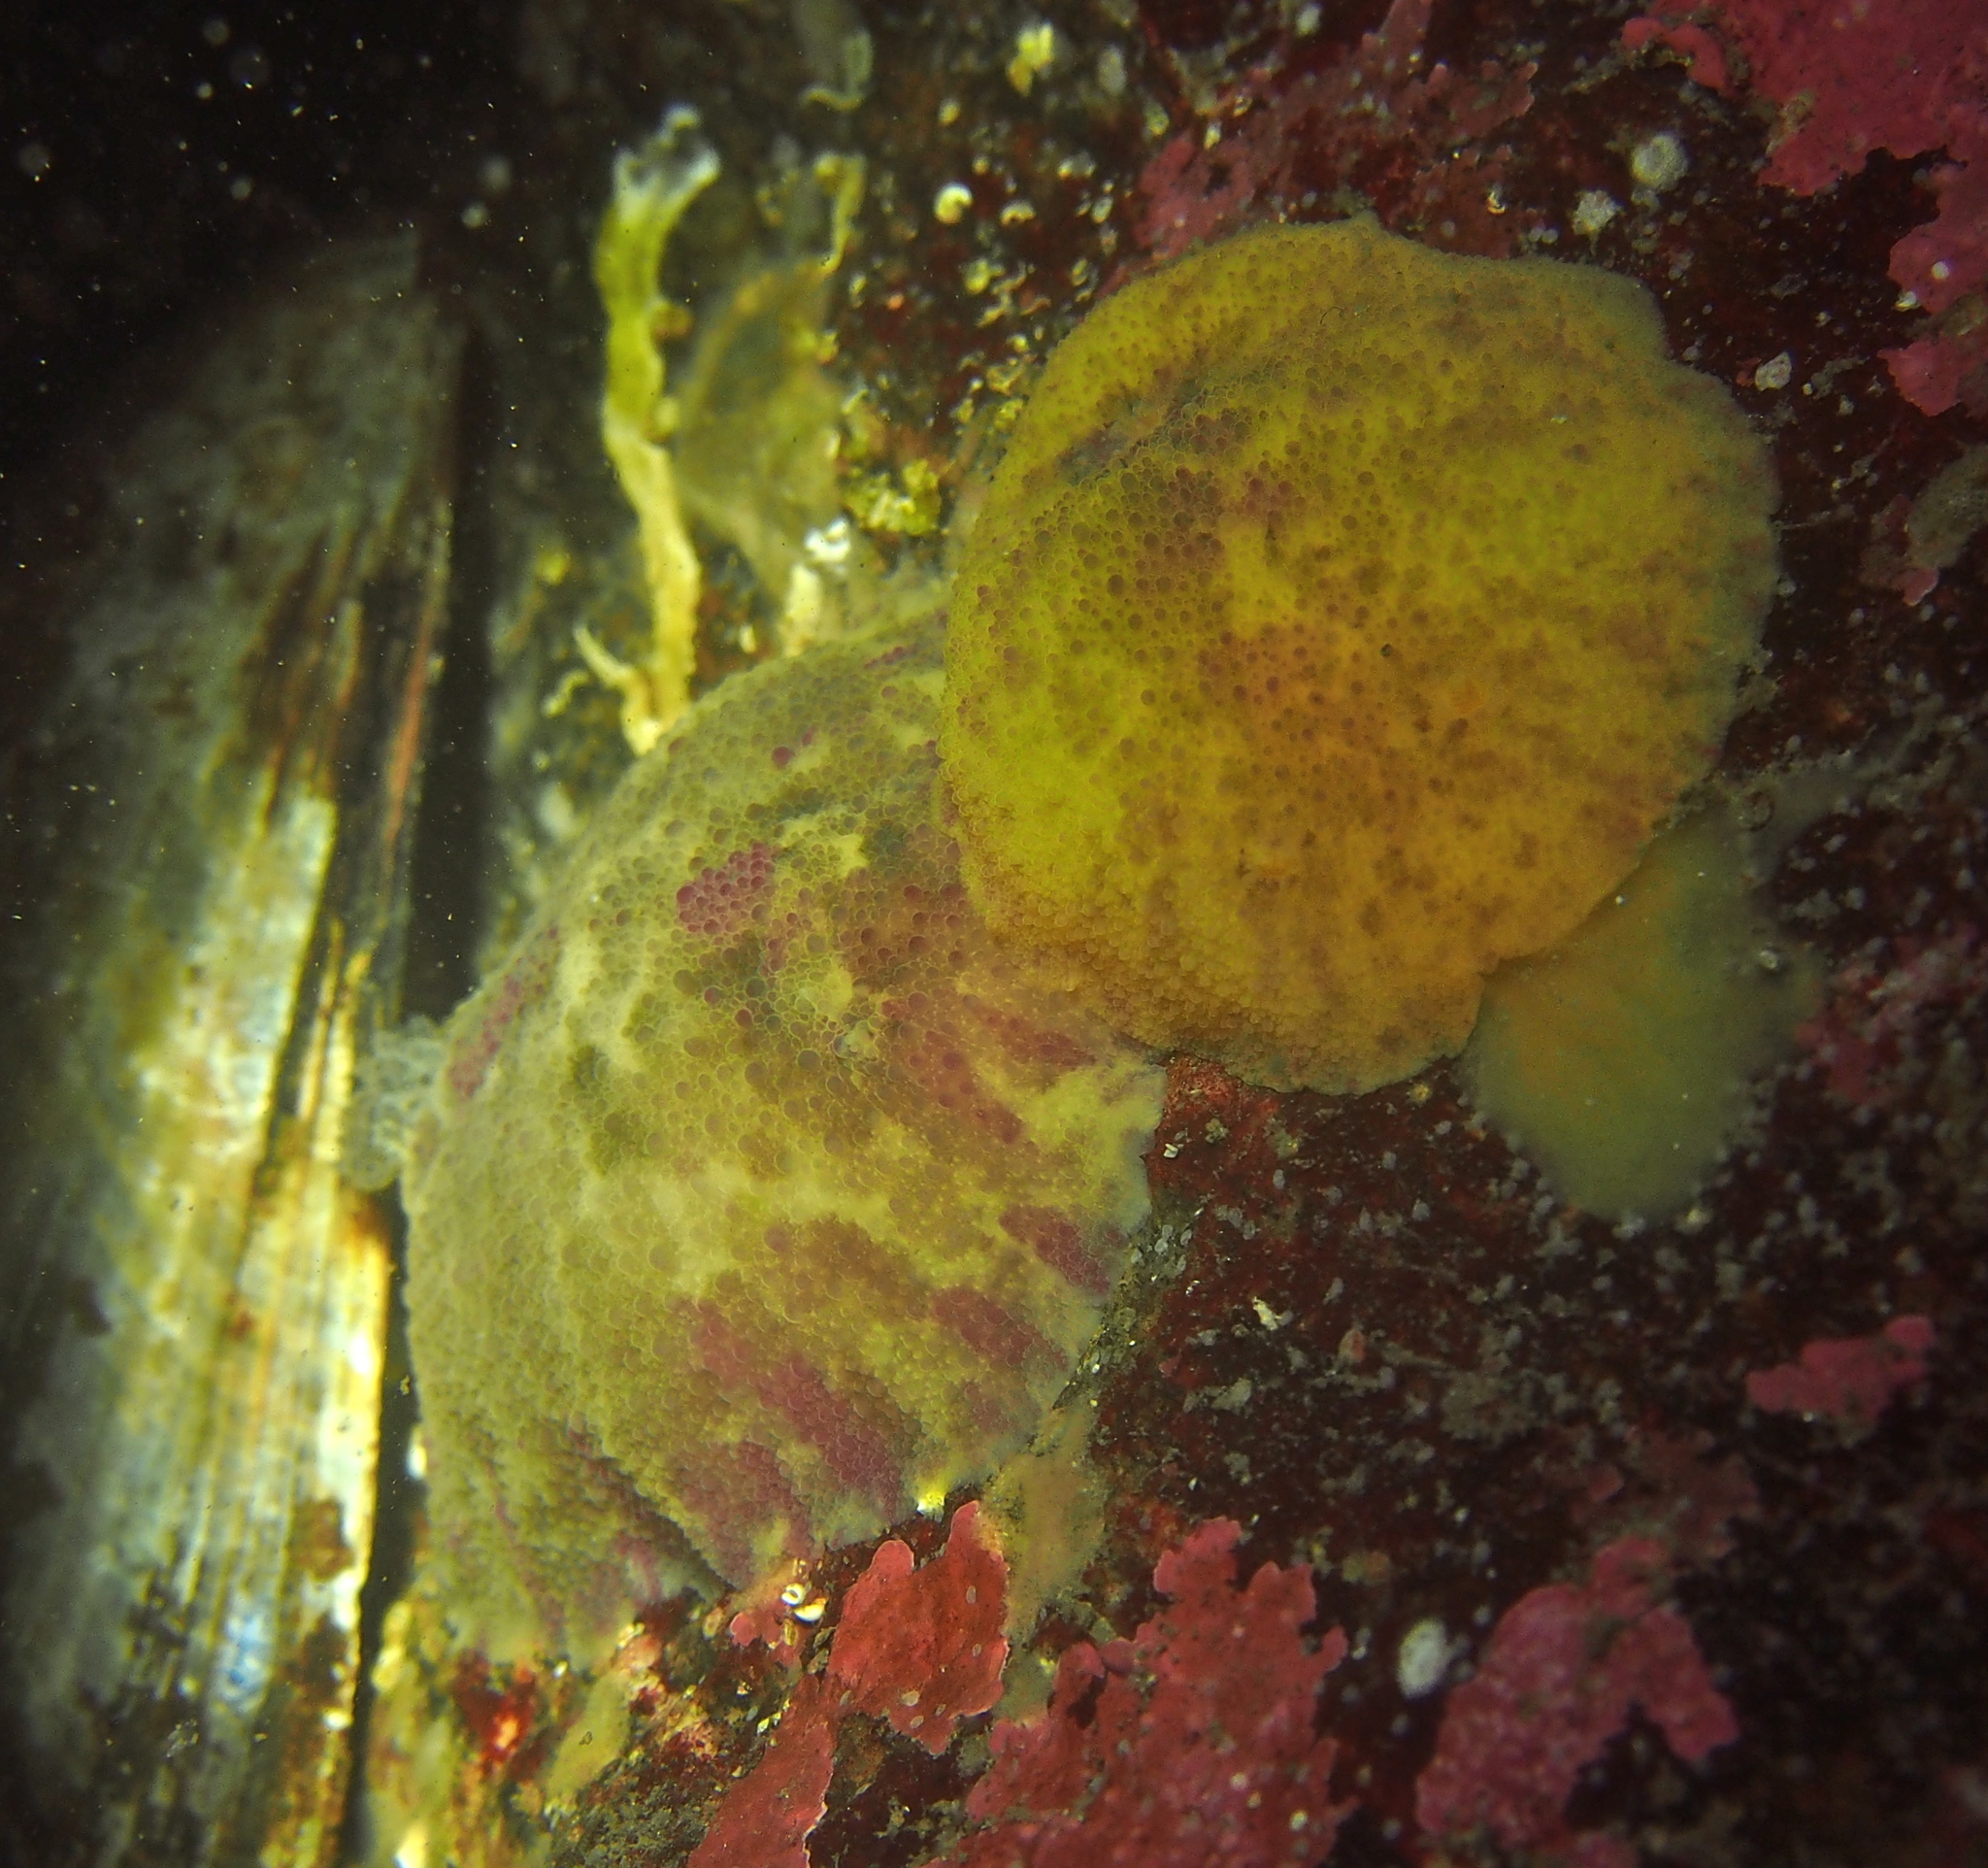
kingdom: Animalia
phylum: Mollusca
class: Gastropoda
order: Nudibranchia
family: Dorididae
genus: Doris
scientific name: Doris pseudoargus
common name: Sea lemon
